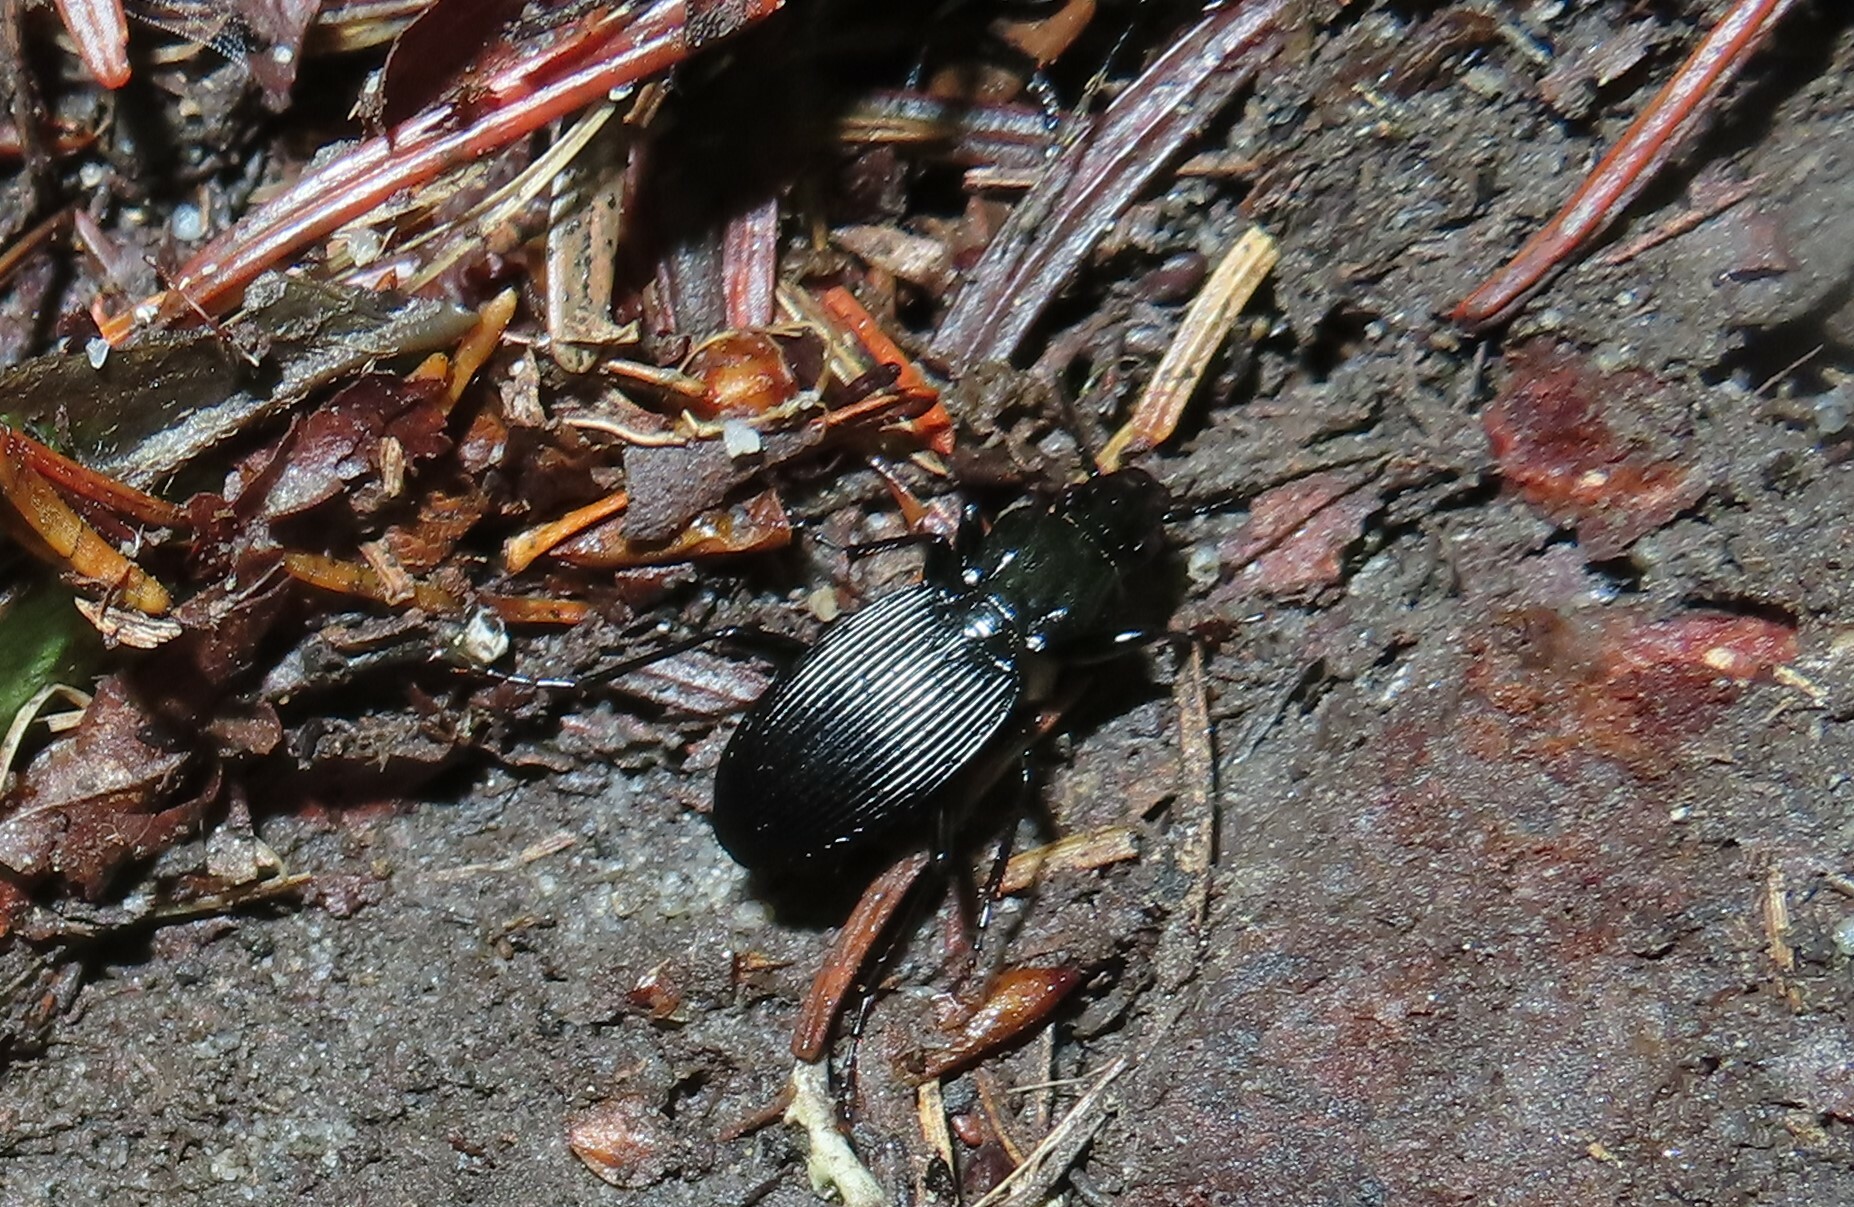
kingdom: Animalia
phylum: Arthropoda
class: Insecta
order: Coleoptera
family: Carabidae
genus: Pterostichus
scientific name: Pterostichus lachrymosus
